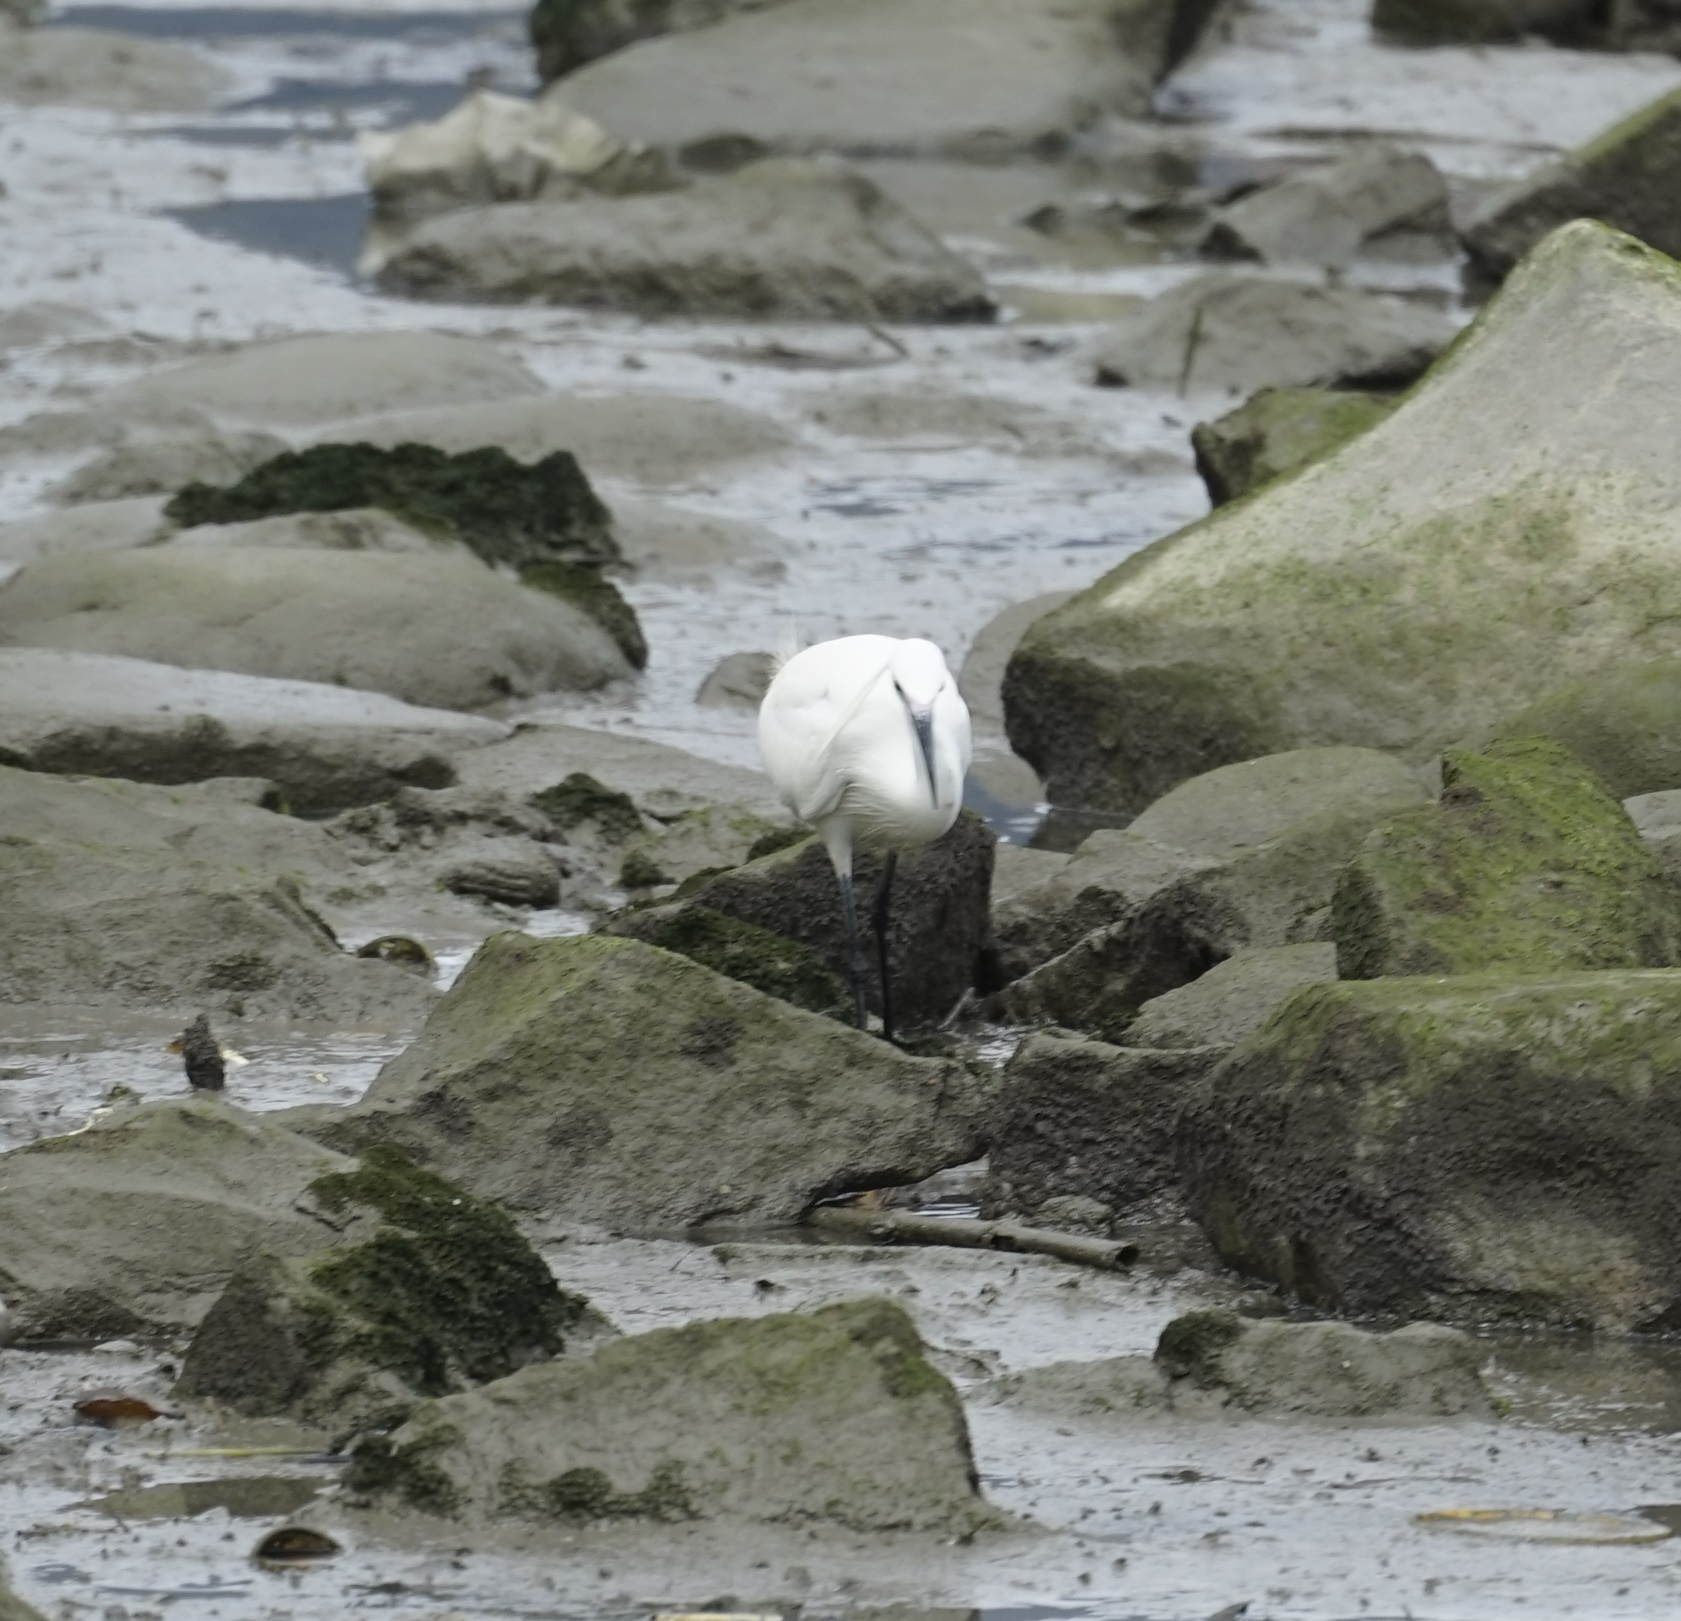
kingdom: Animalia
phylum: Chordata
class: Aves
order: Pelecaniformes
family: Ardeidae
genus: Egretta
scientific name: Egretta garzetta
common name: Little egret
